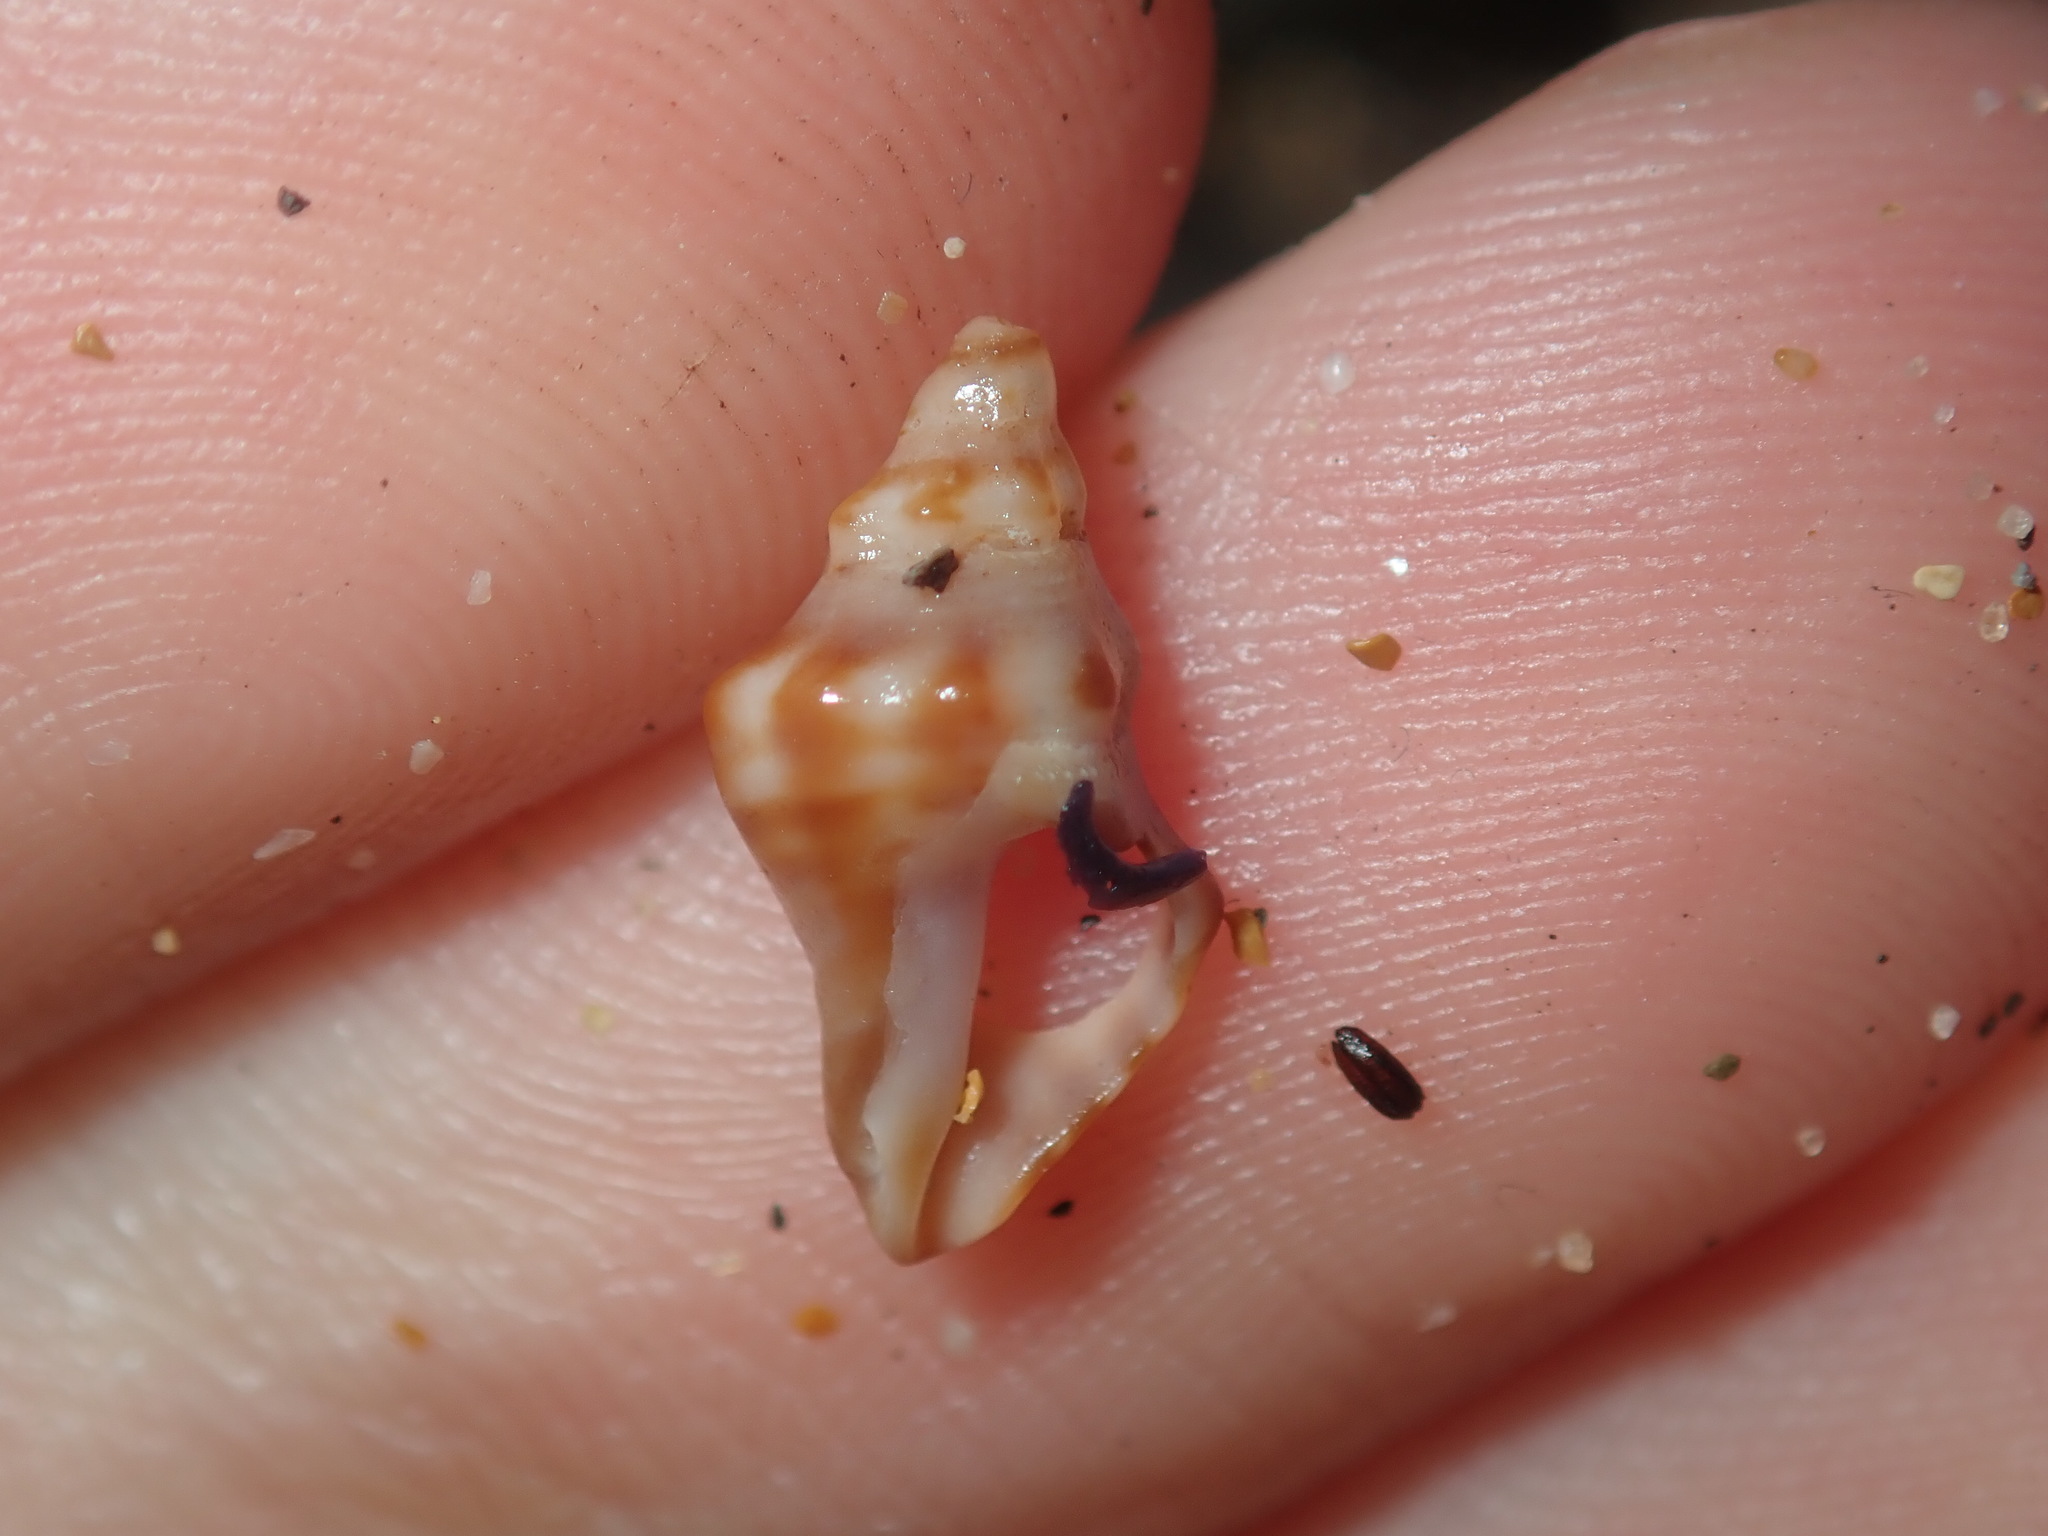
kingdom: Animalia
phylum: Mollusca
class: Gastropoda
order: Neogastropoda
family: Muricidae
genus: Phycothais
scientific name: Phycothais reticulata
